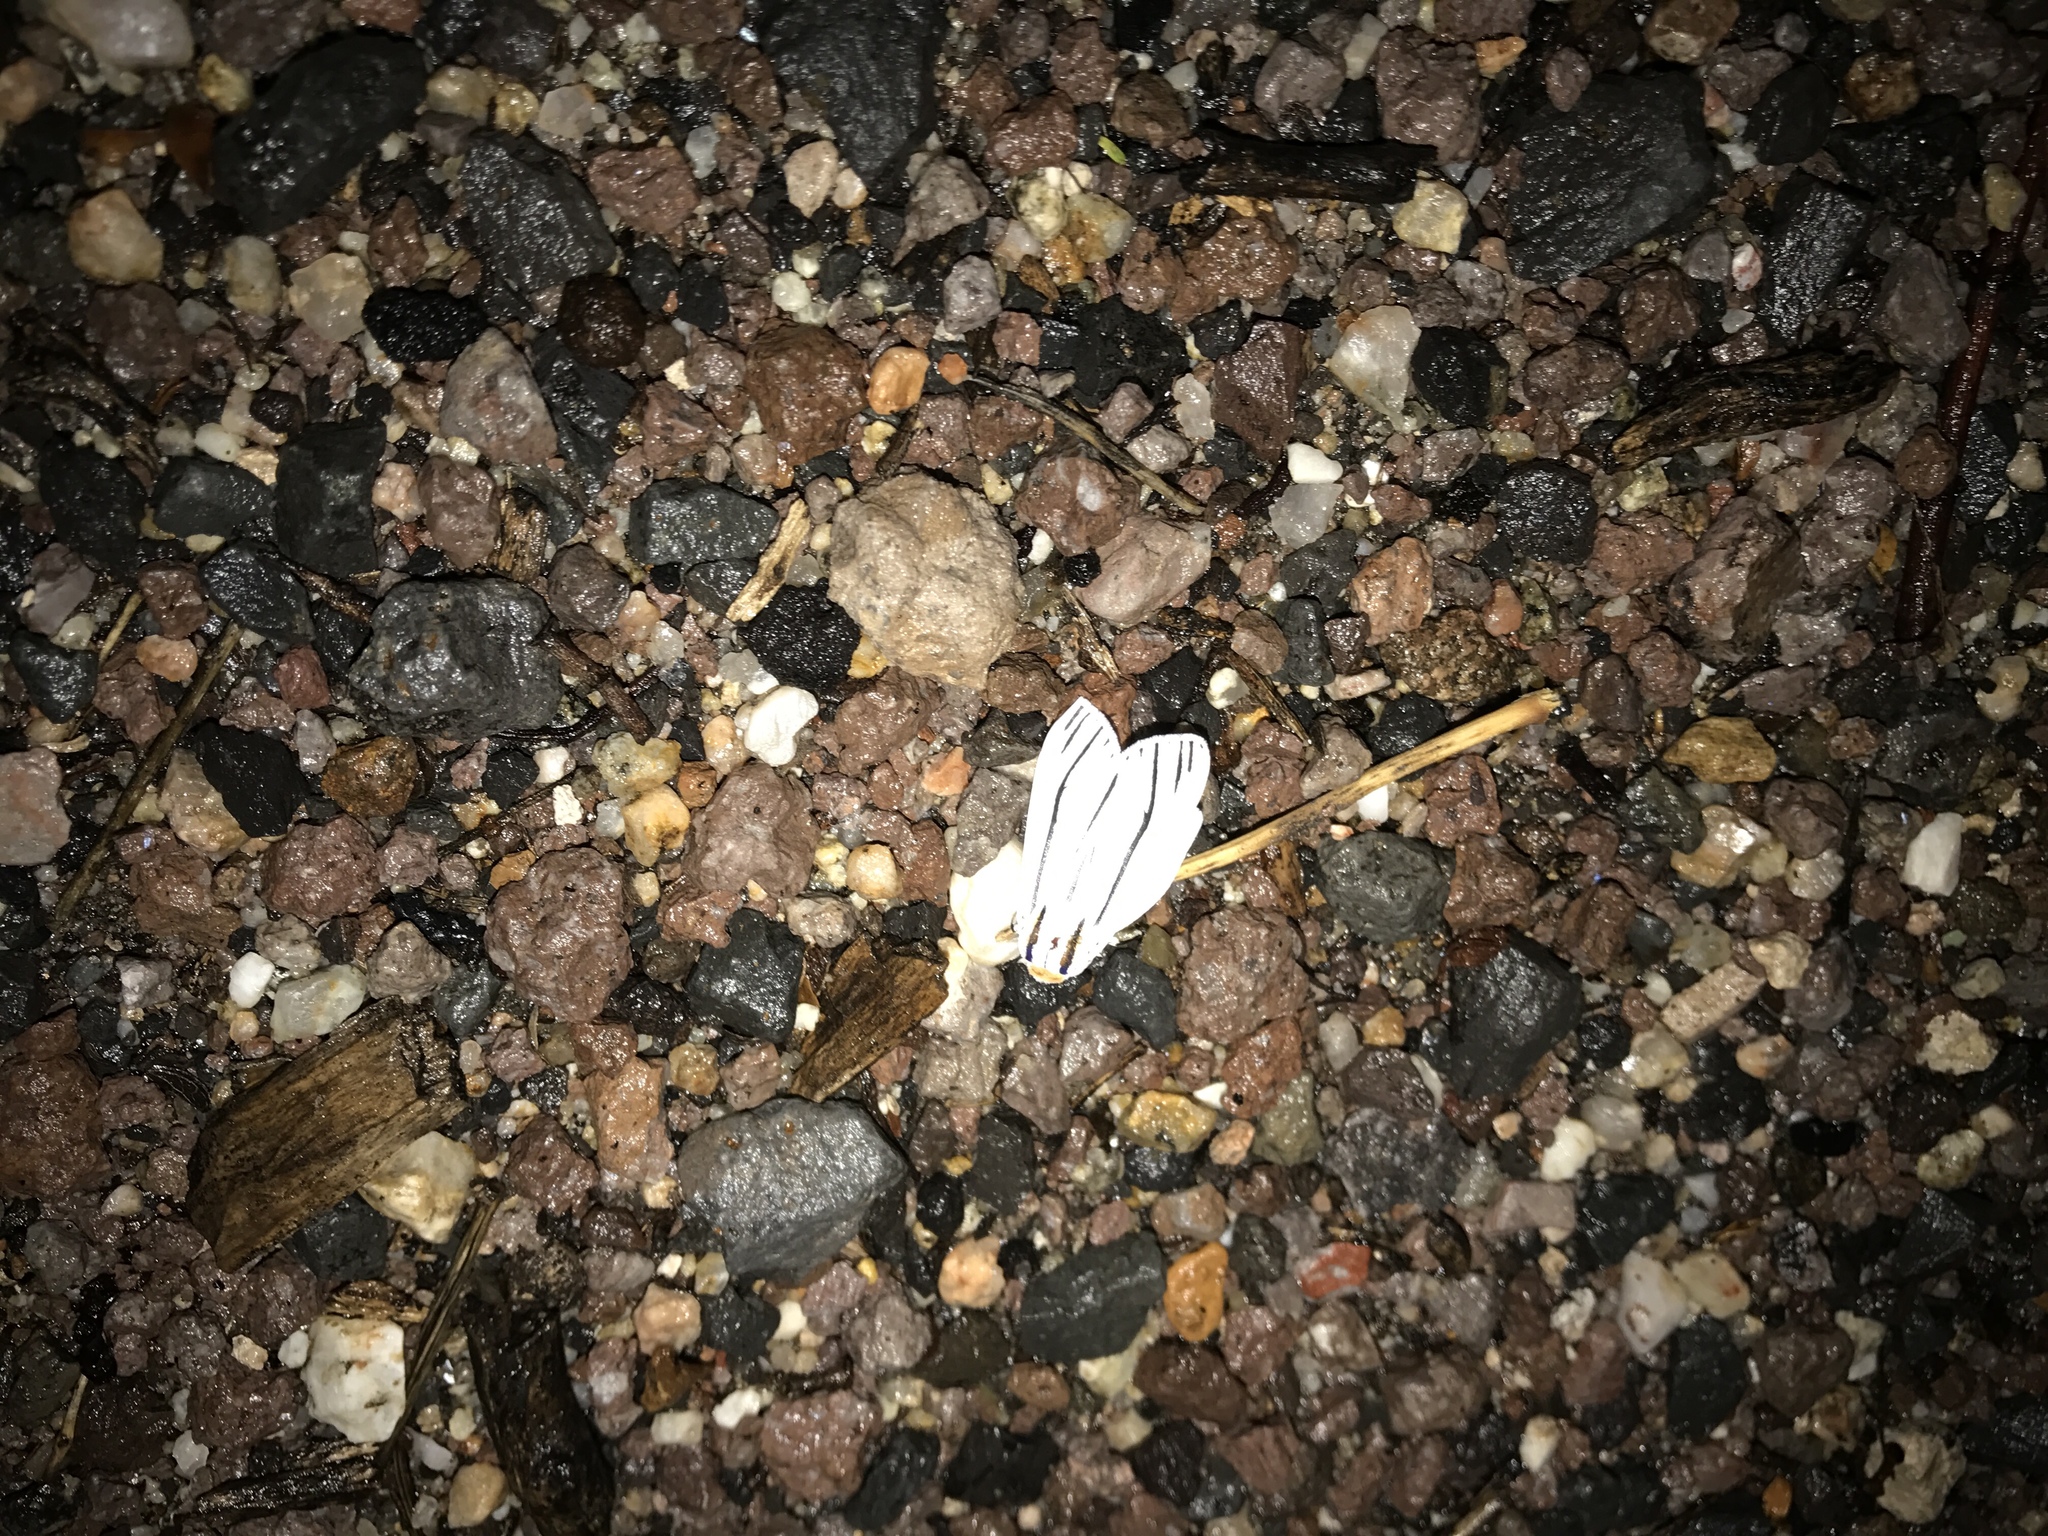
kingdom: Animalia
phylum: Arthropoda
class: Insecta
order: Lepidoptera
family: Erebidae
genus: Ectypia
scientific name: Ectypia clio
